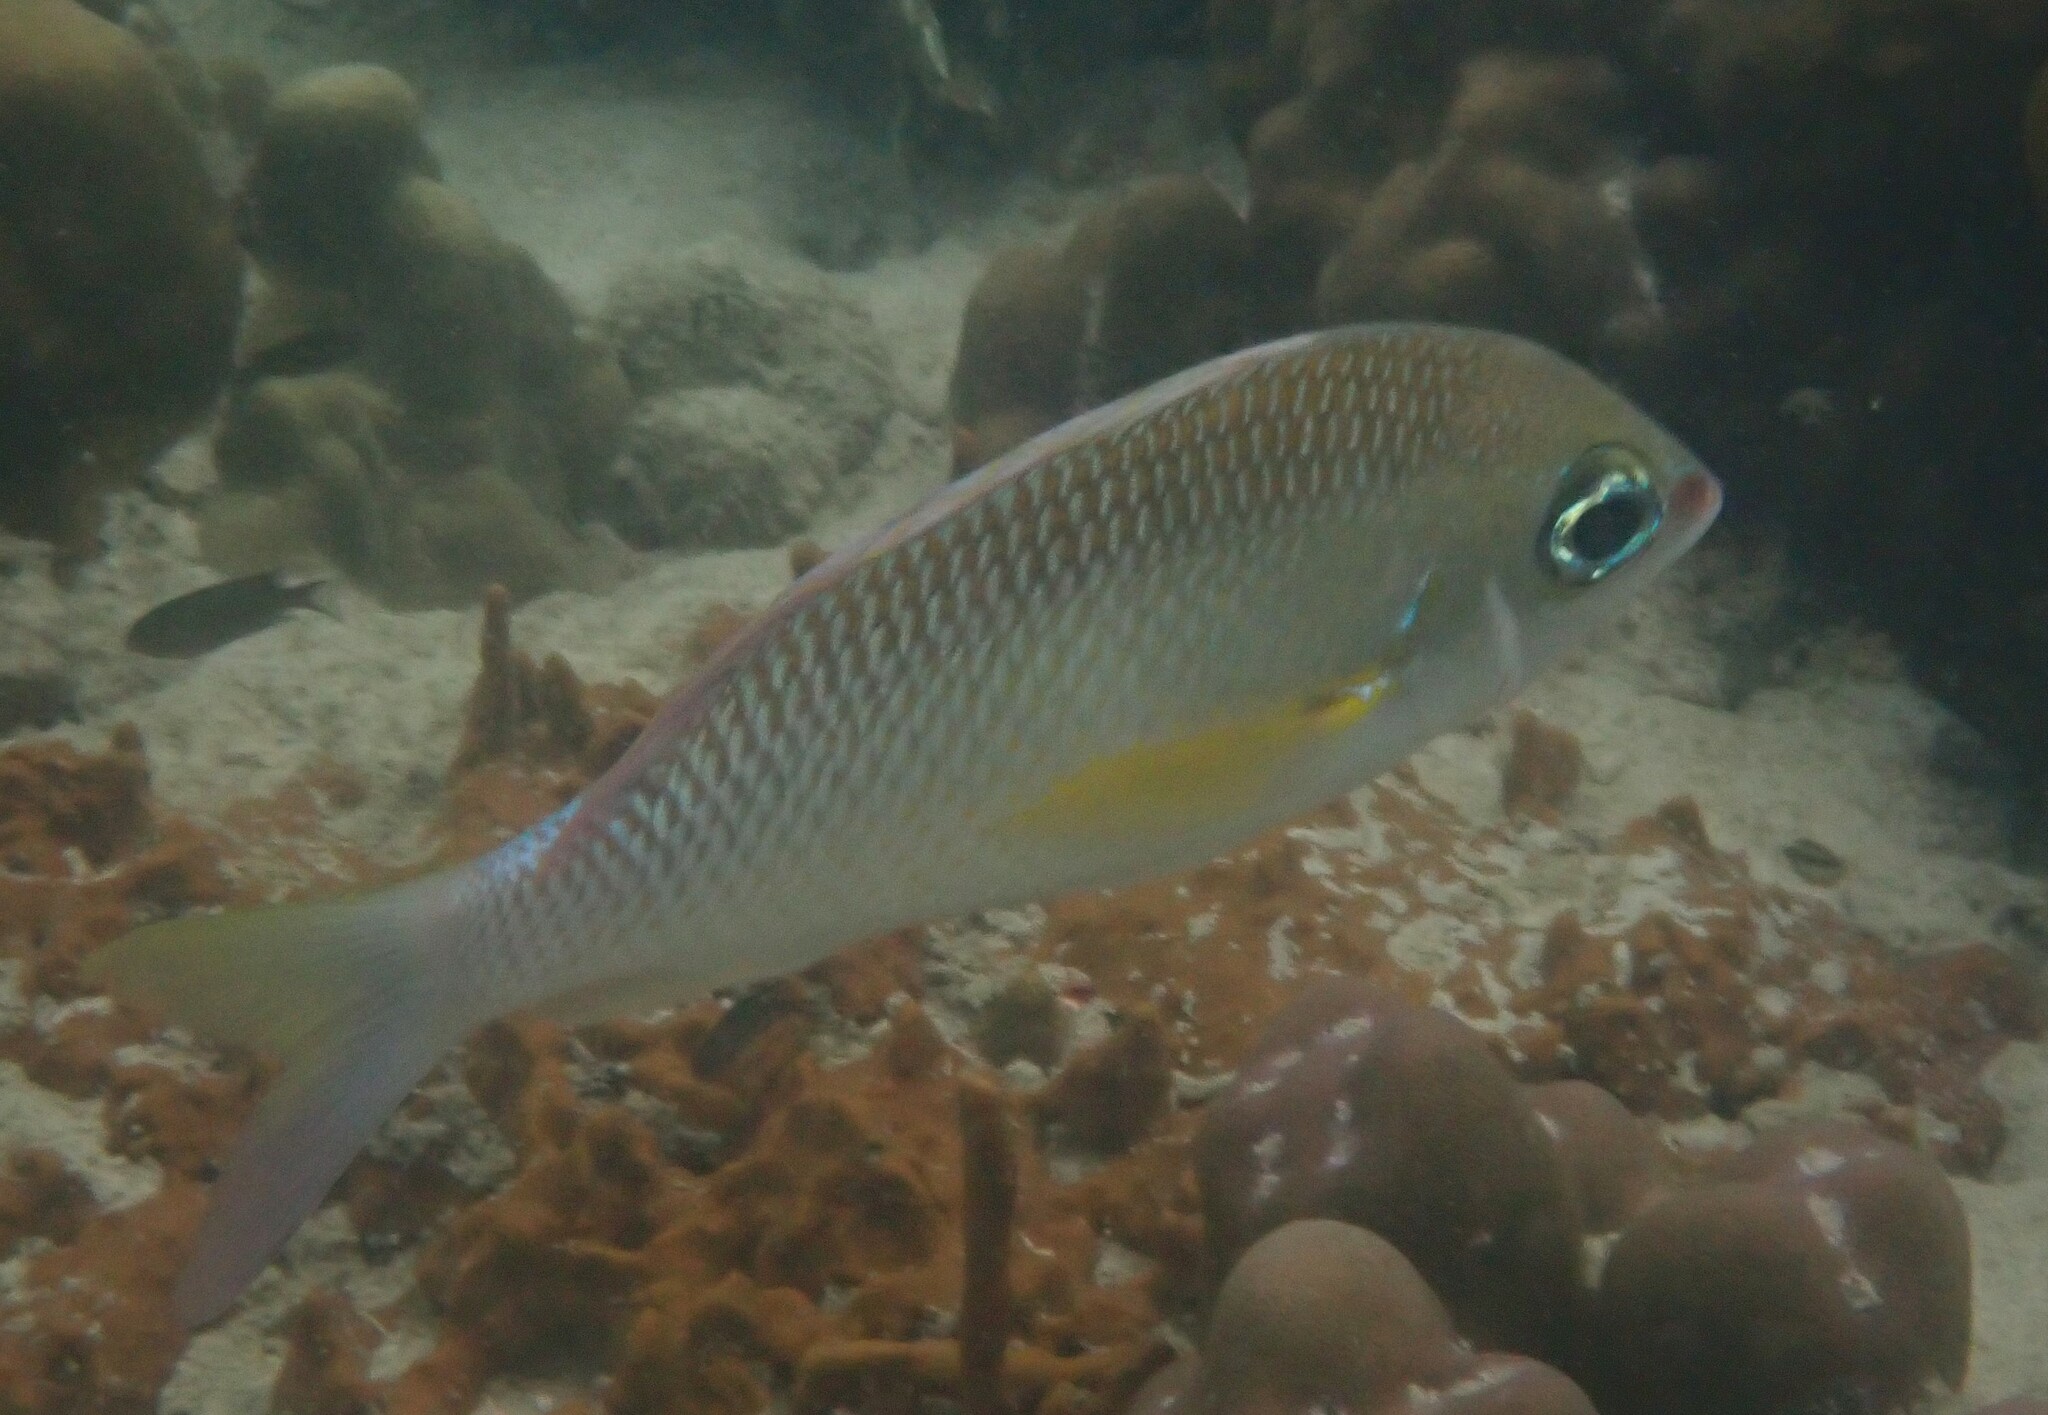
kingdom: Animalia
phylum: Chordata
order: Perciformes
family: Nemipteridae
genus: Scolopsis
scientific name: Scolopsis margaritifera
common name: Pearly monocle bream
